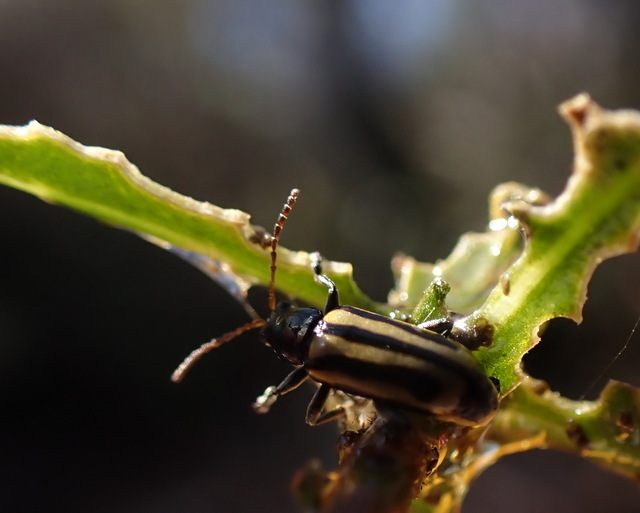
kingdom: Animalia
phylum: Arthropoda
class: Insecta
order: Coleoptera
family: Chrysomelidae
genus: Agasicles
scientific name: Agasicles hygrophila
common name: Alligatorweed flea beetle
